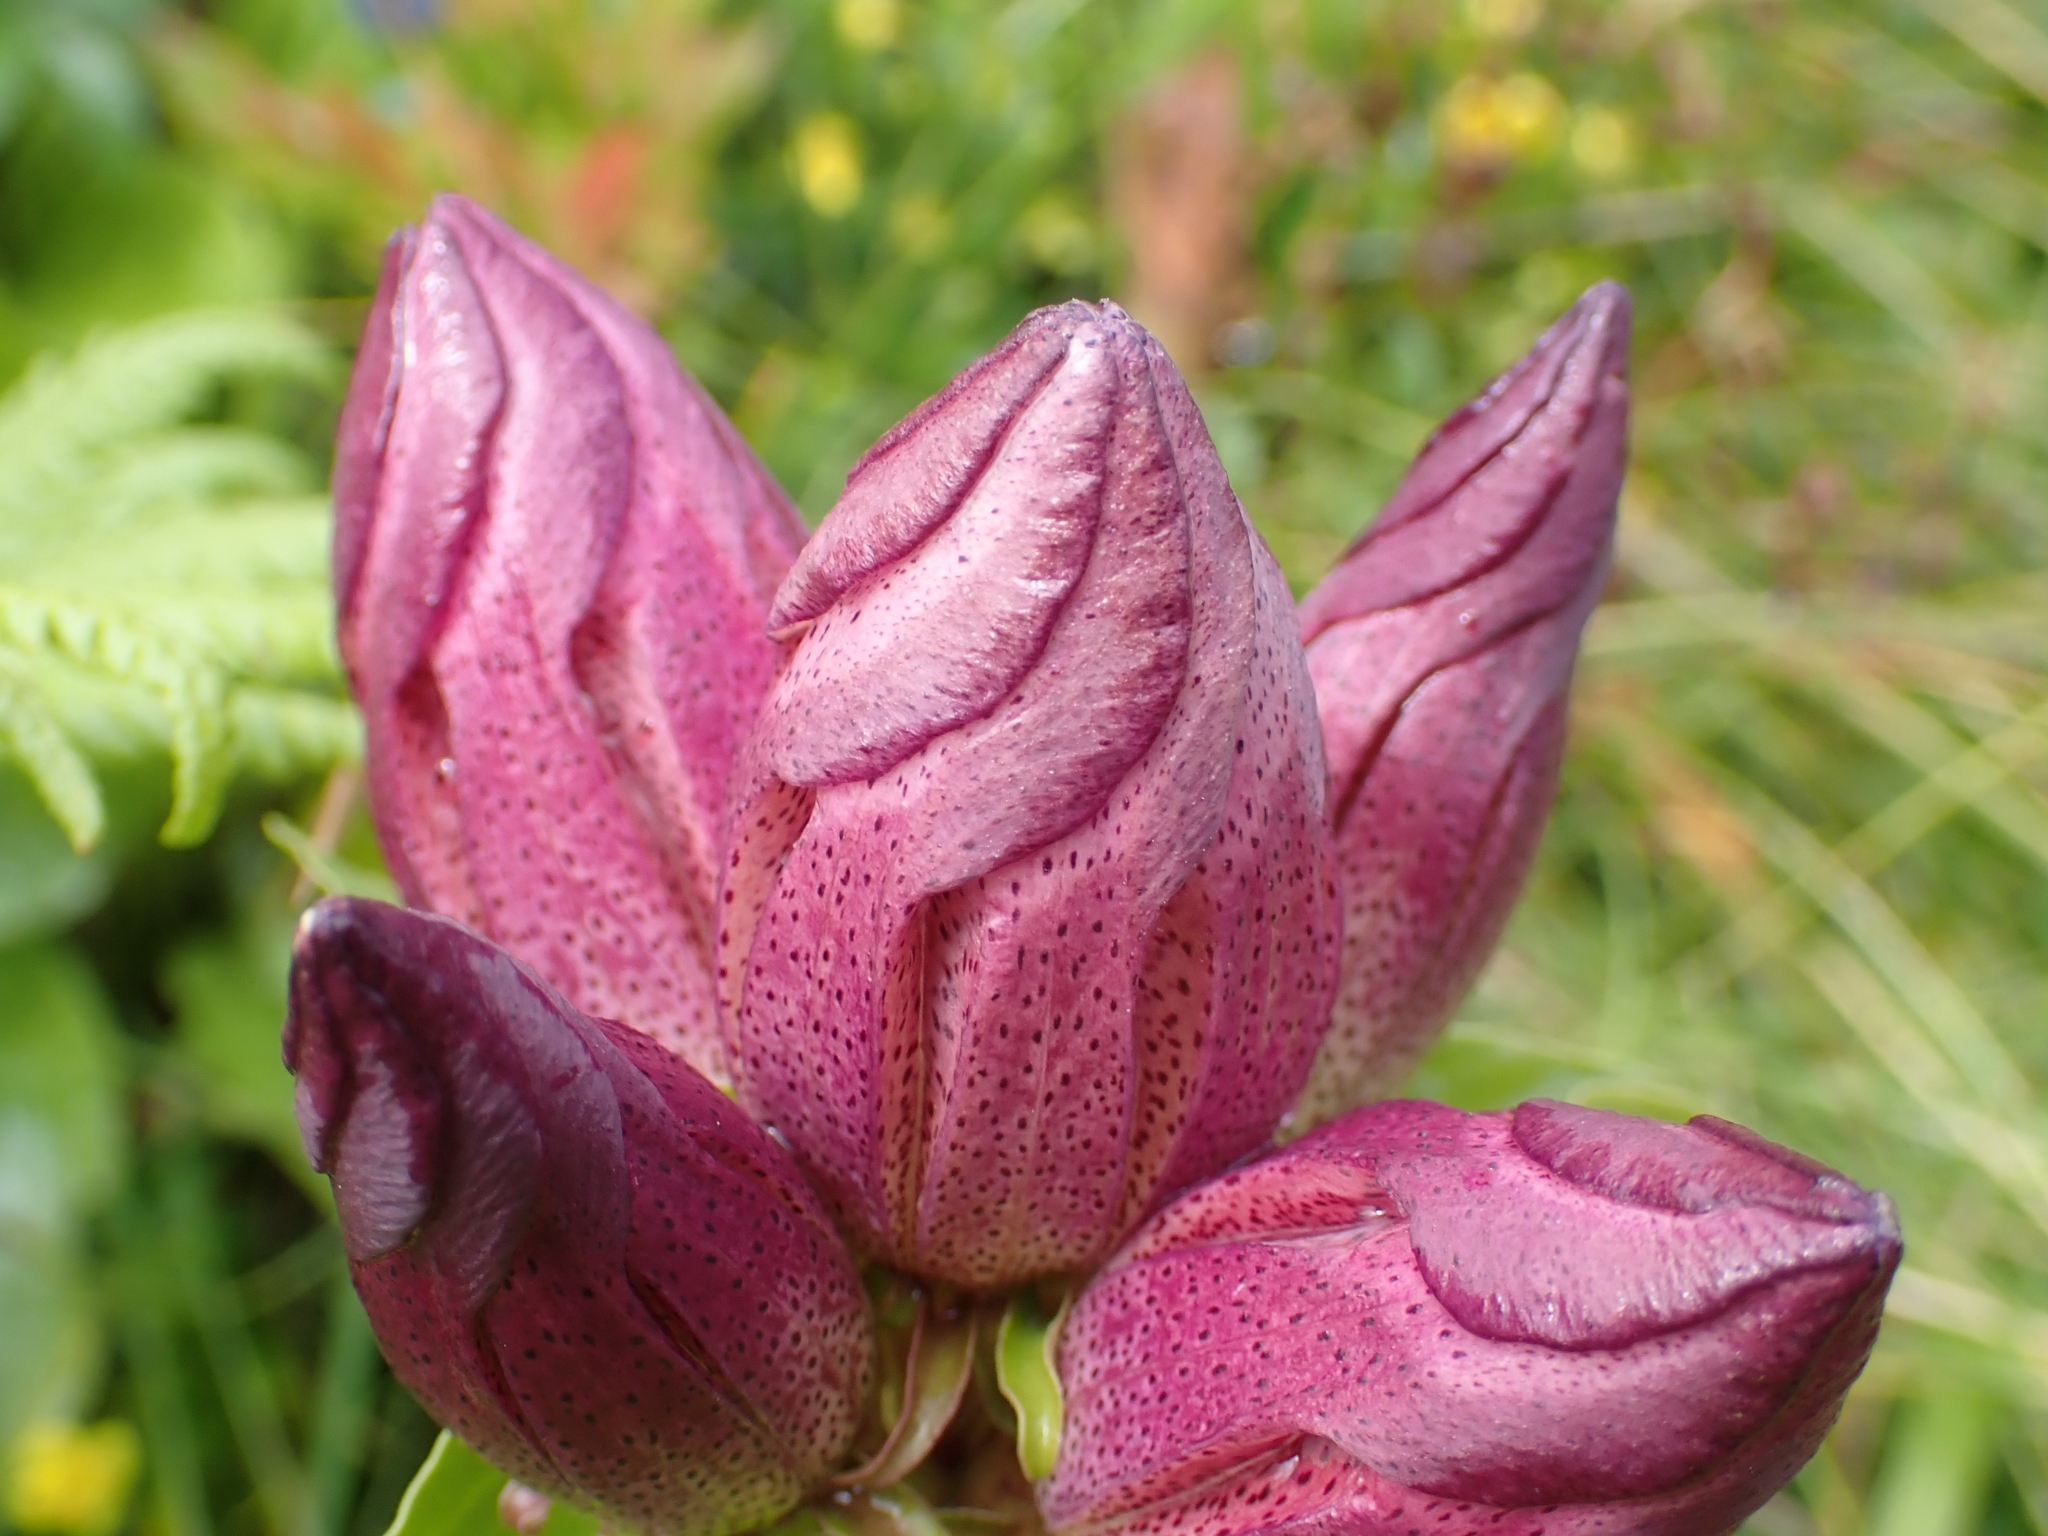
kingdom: Plantae
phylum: Tracheophyta
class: Magnoliopsida
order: Gentianales
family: Gentianaceae
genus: Gentiana
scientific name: Gentiana pannonica
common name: Hungarian gentian
